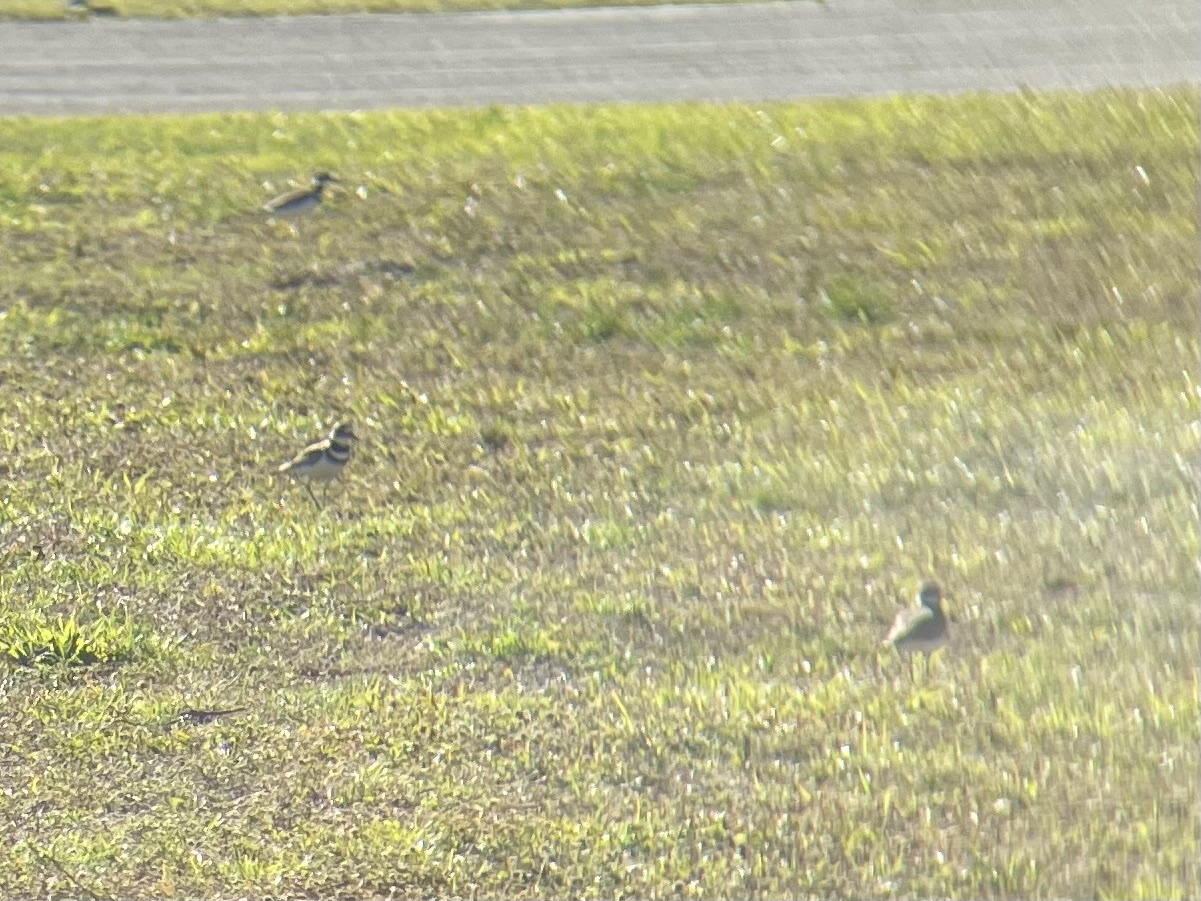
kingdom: Animalia
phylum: Chordata
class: Aves
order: Charadriiformes
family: Charadriidae
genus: Charadrius
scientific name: Charadrius vociferus
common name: Killdeer
